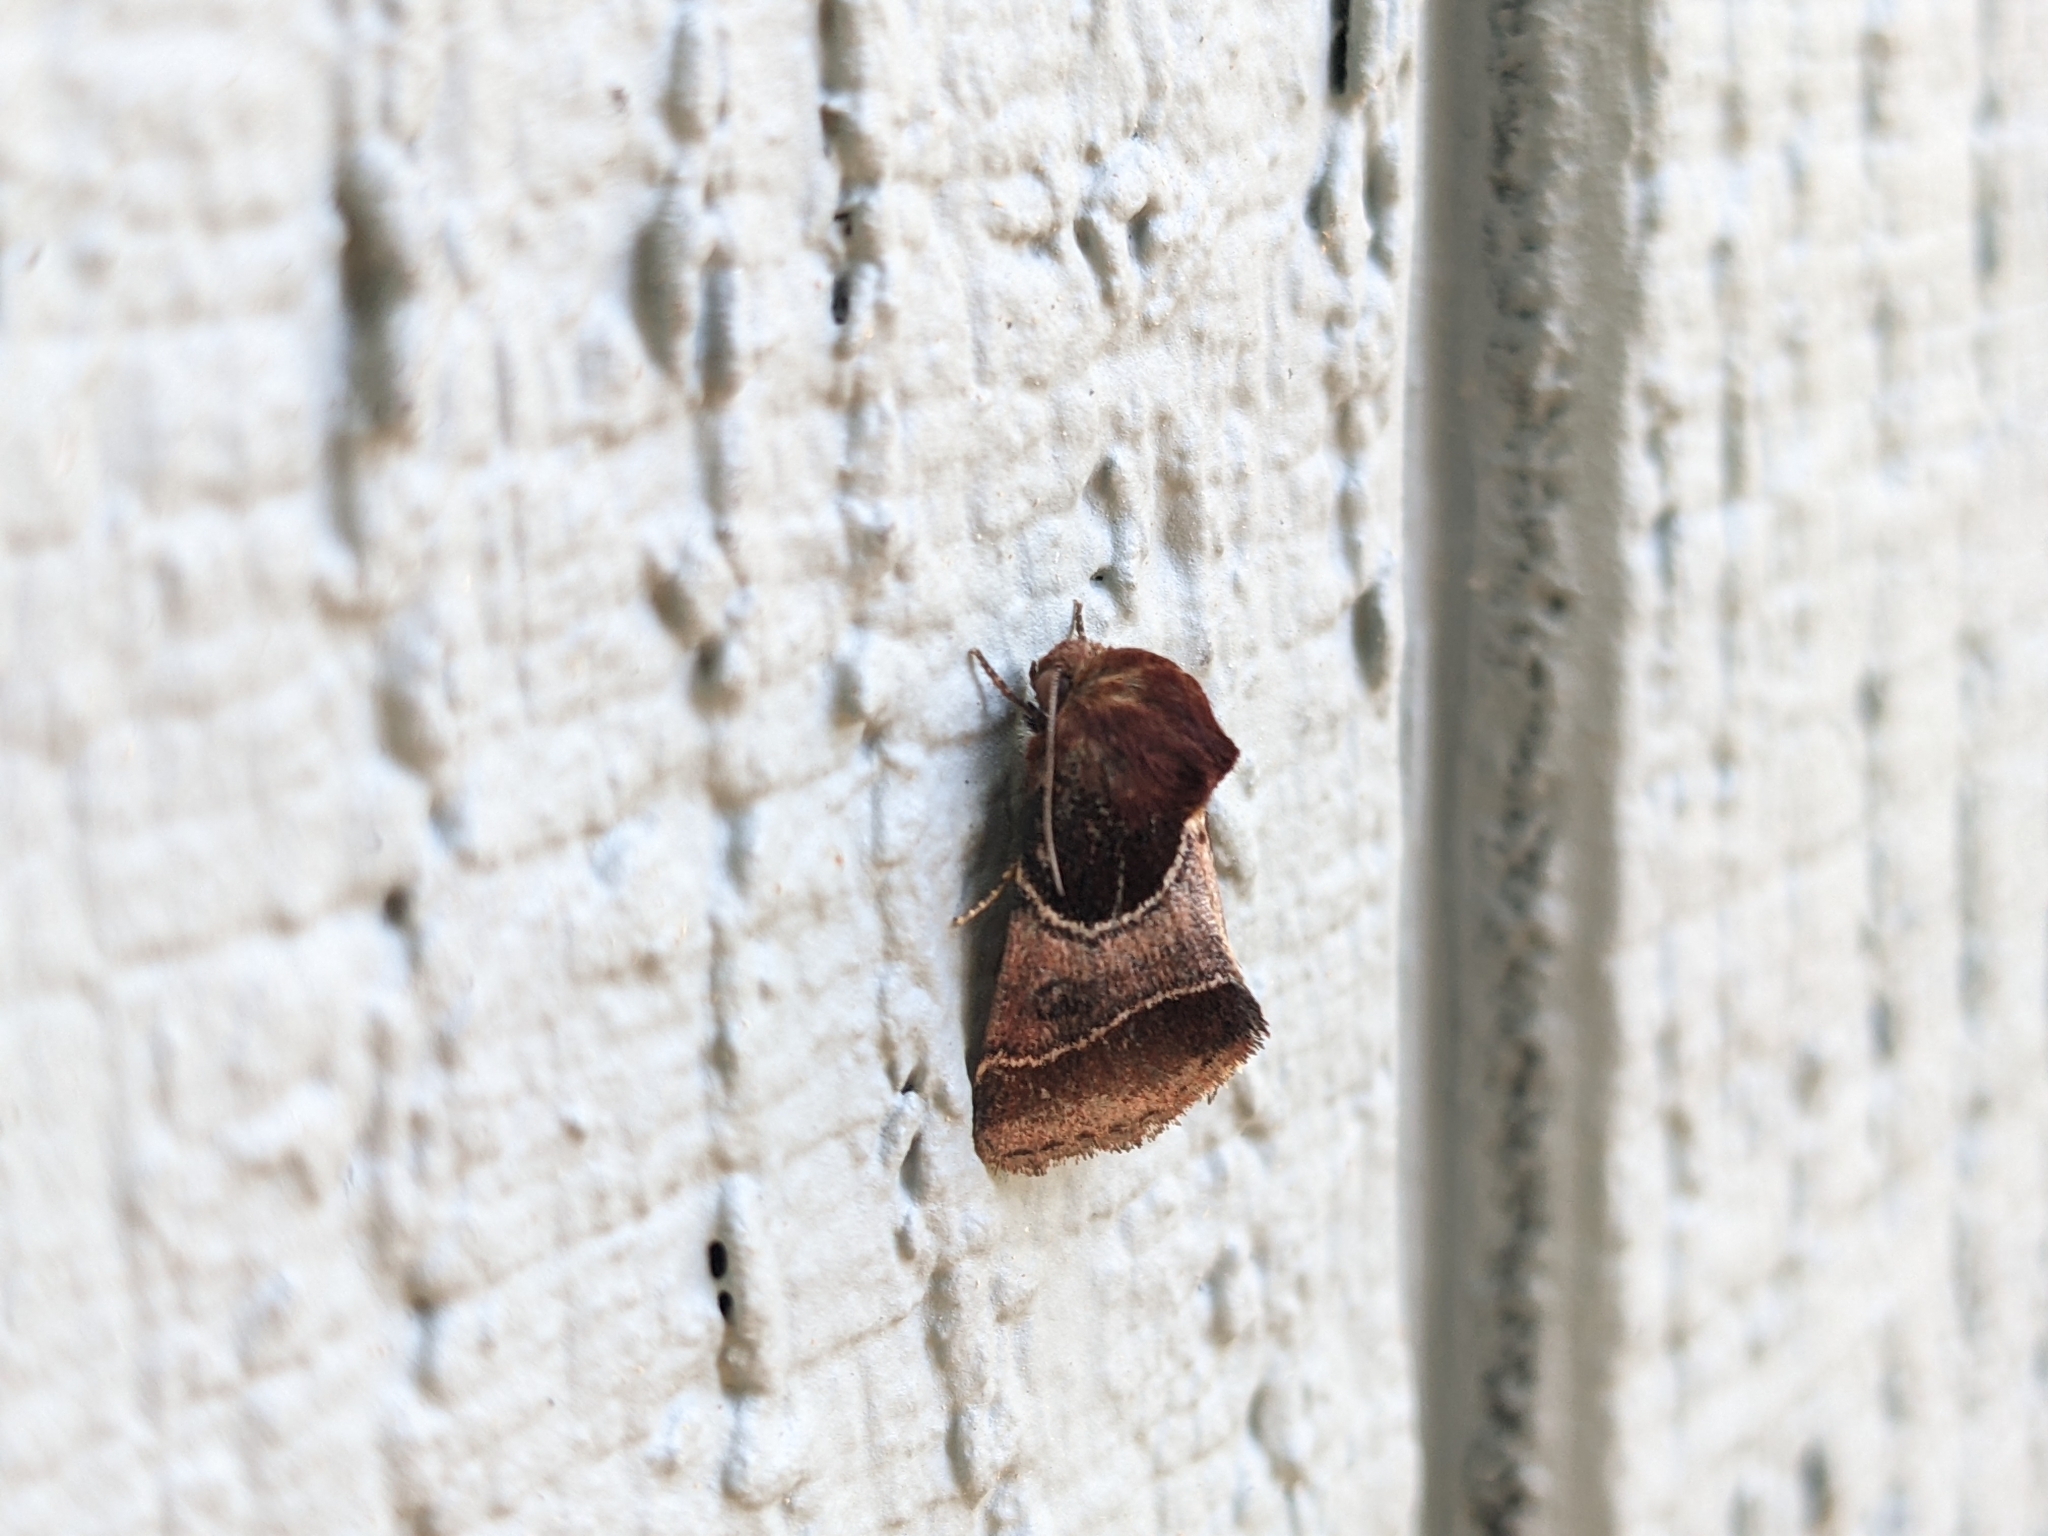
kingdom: Animalia
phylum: Arthropoda
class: Insecta
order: Lepidoptera
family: Noctuidae
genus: Schinia
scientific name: Schinia arcigera
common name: Arcigera flower moth
